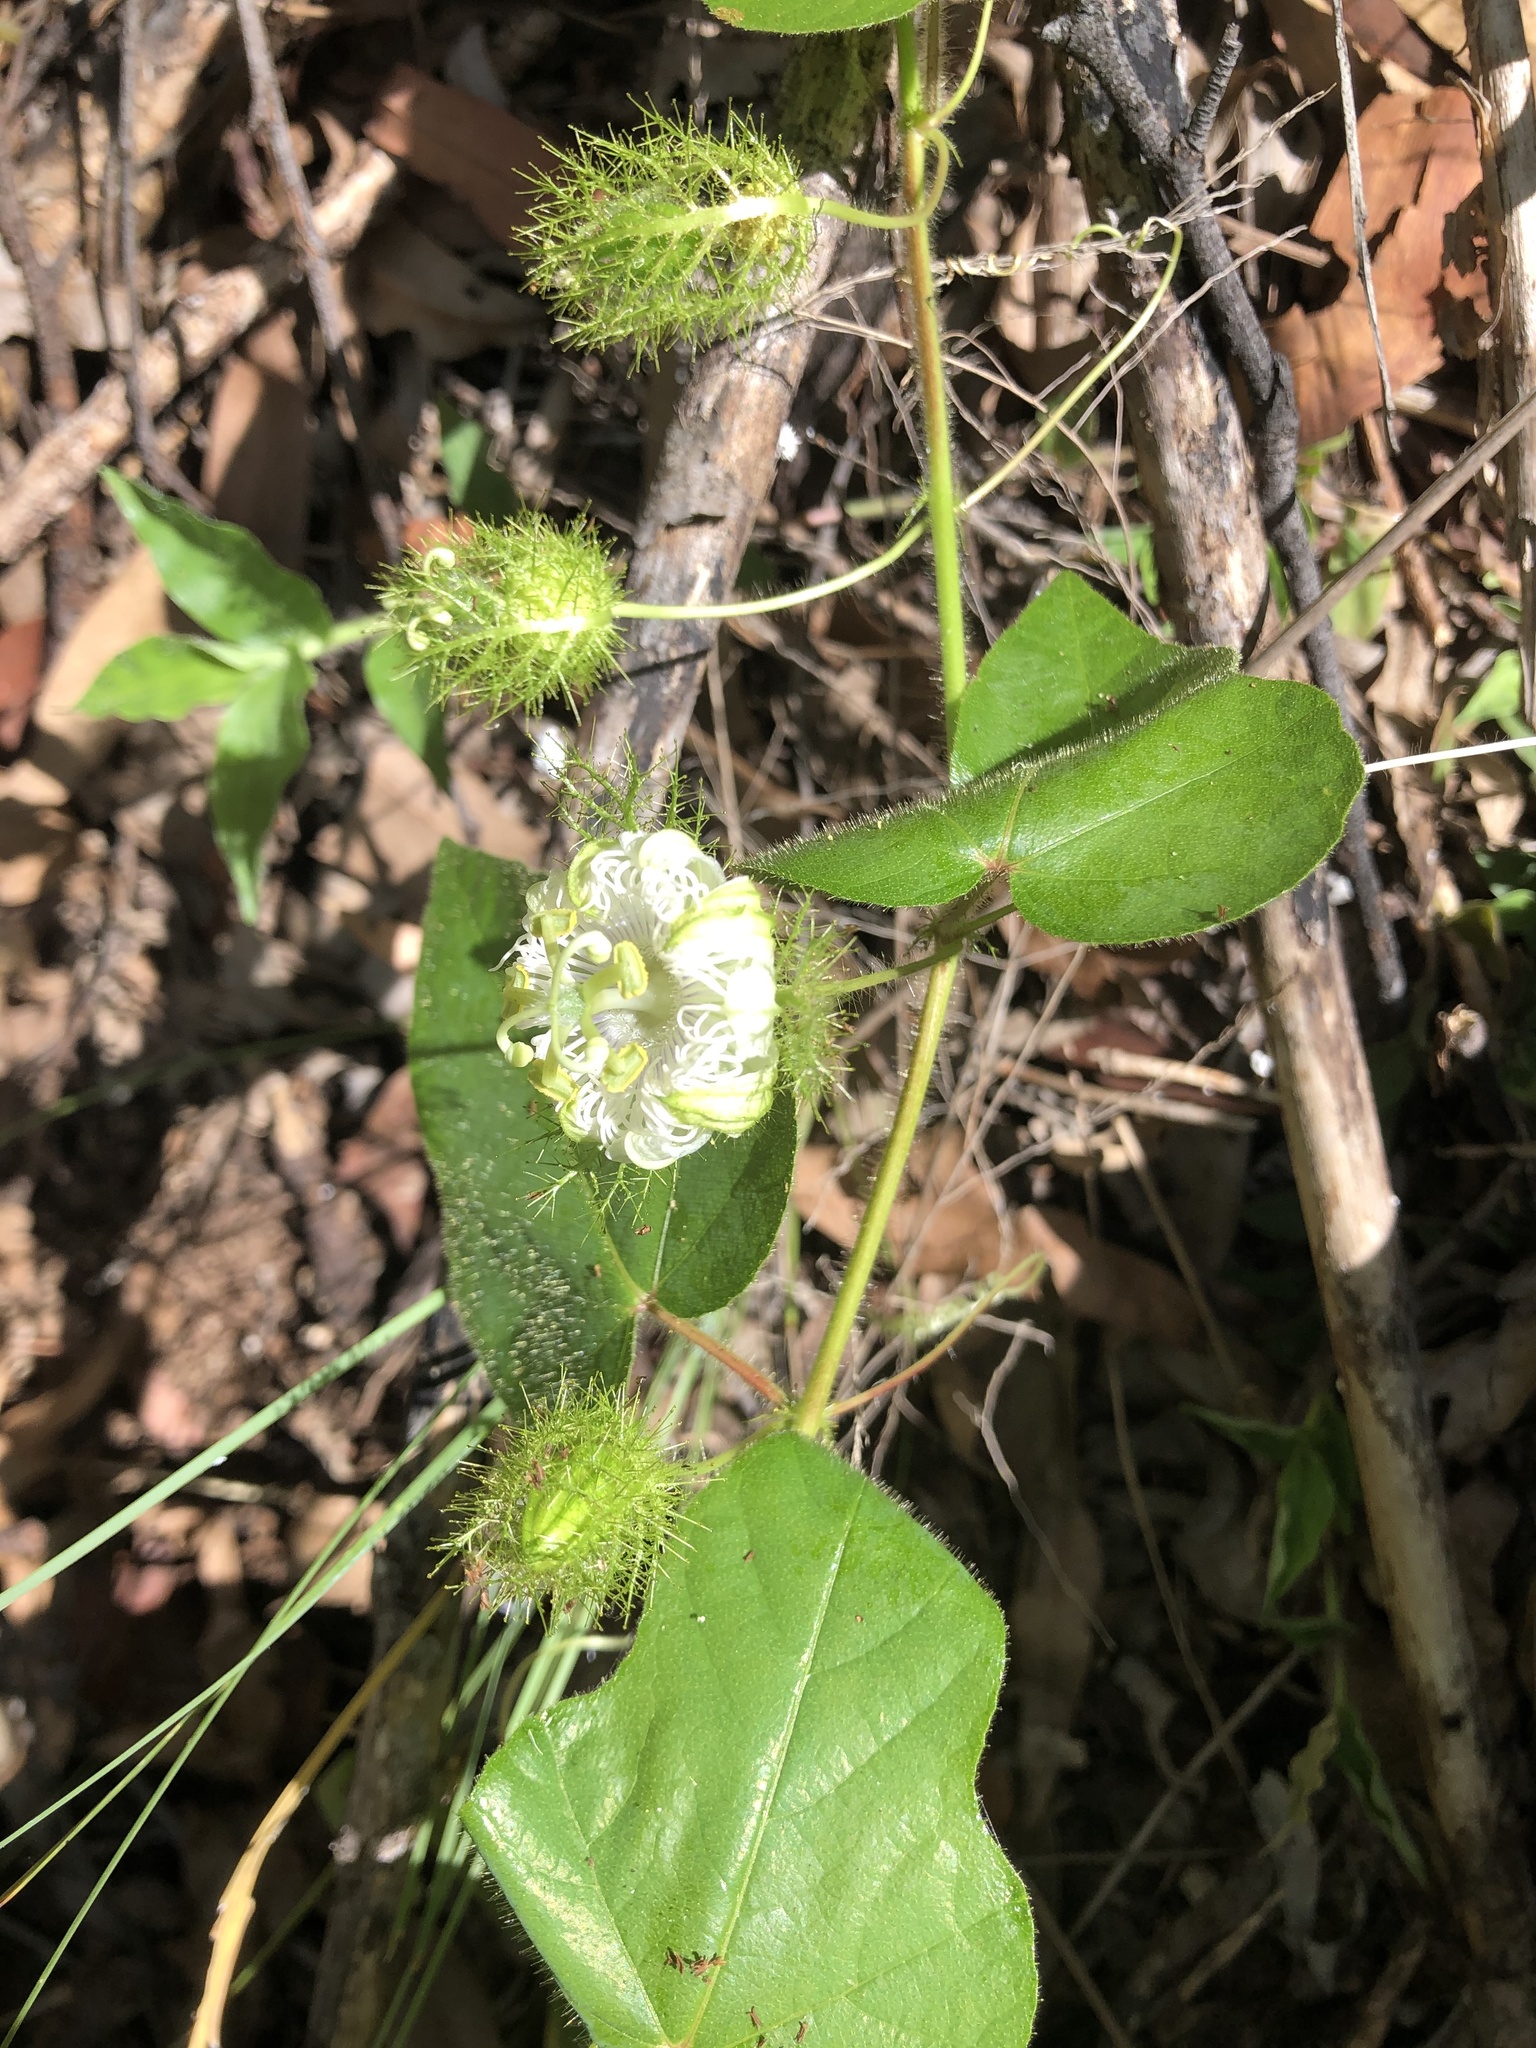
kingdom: Plantae
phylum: Tracheophyta
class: Magnoliopsida
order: Malpighiales
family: Passifloraceae
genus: Passiflora
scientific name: Passiflora foetida
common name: Fetid passionflower
